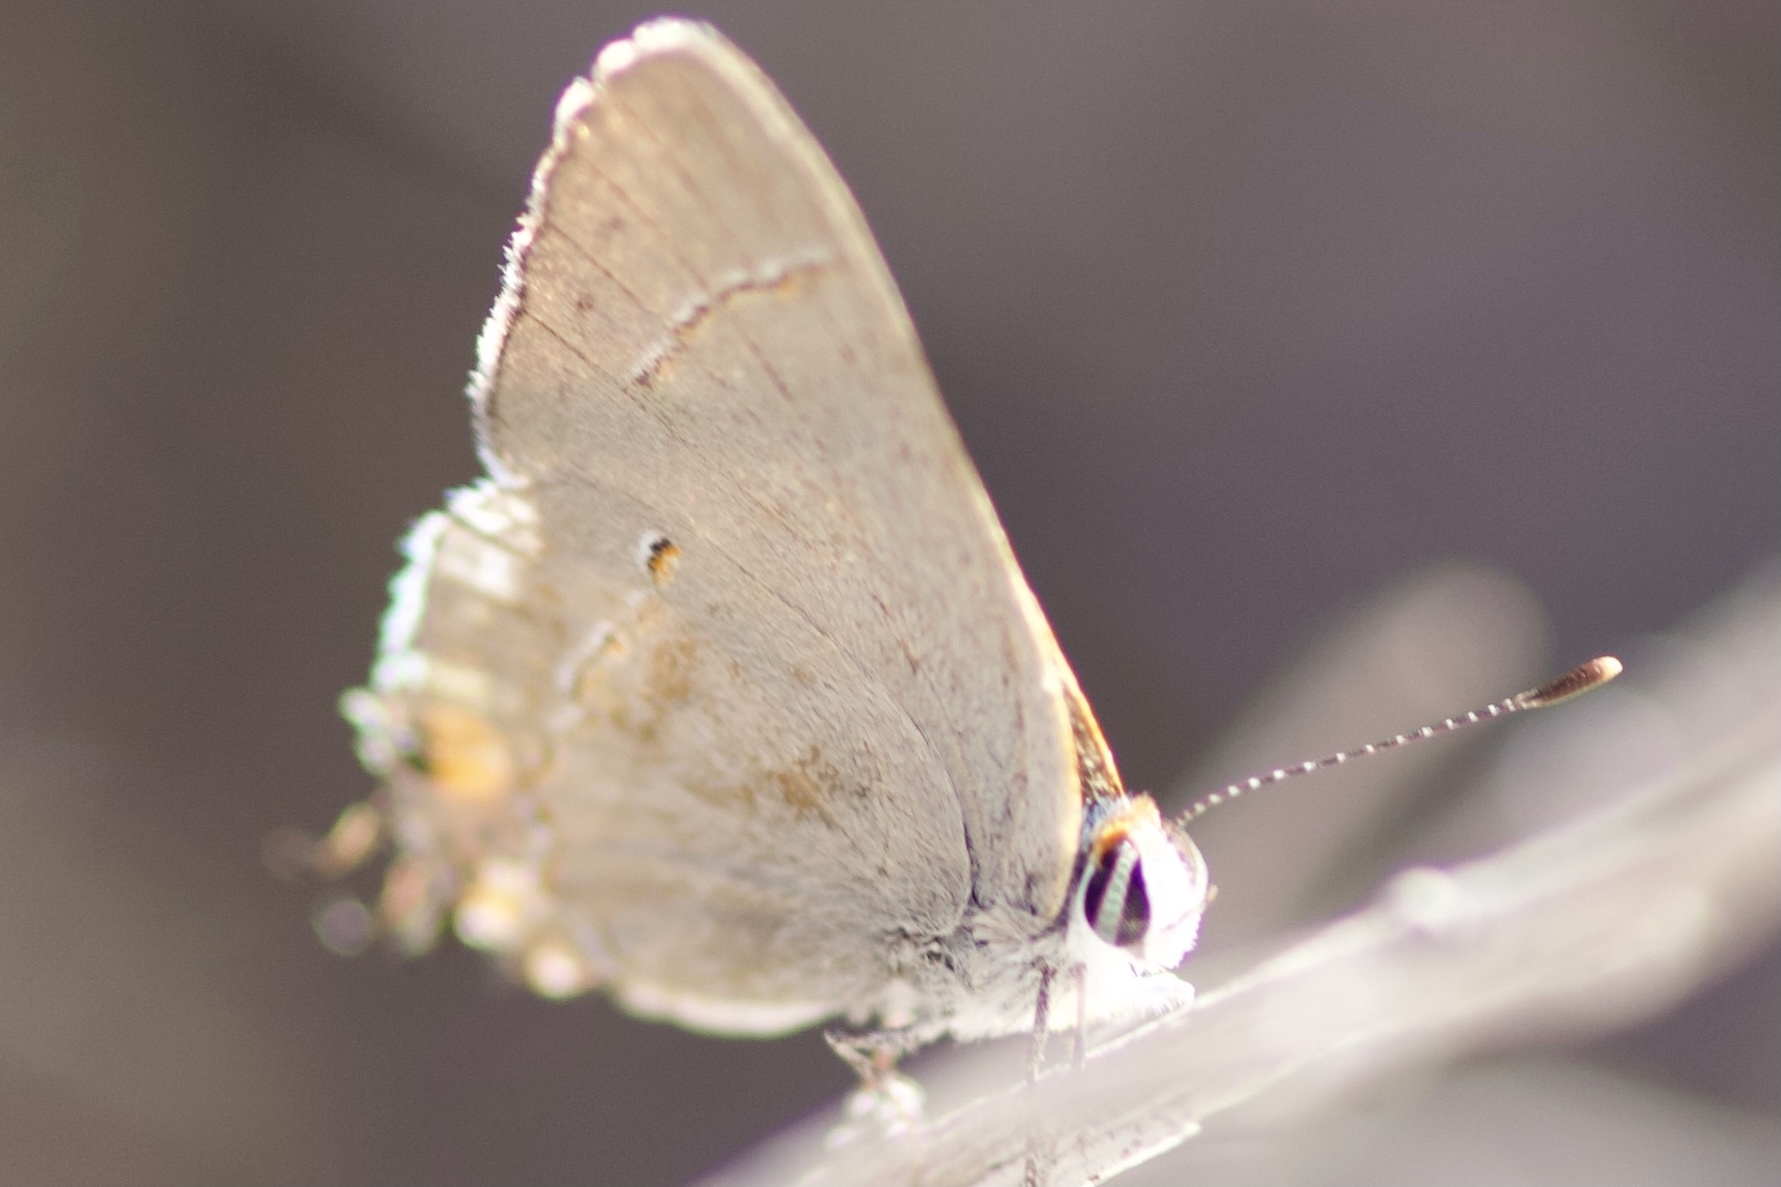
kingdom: Animalia
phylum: Arthropoda
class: Insecta
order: Lepidoptera
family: Lycaenidae
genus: Strymon
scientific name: Strymon melinus
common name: Gray hairstreak
